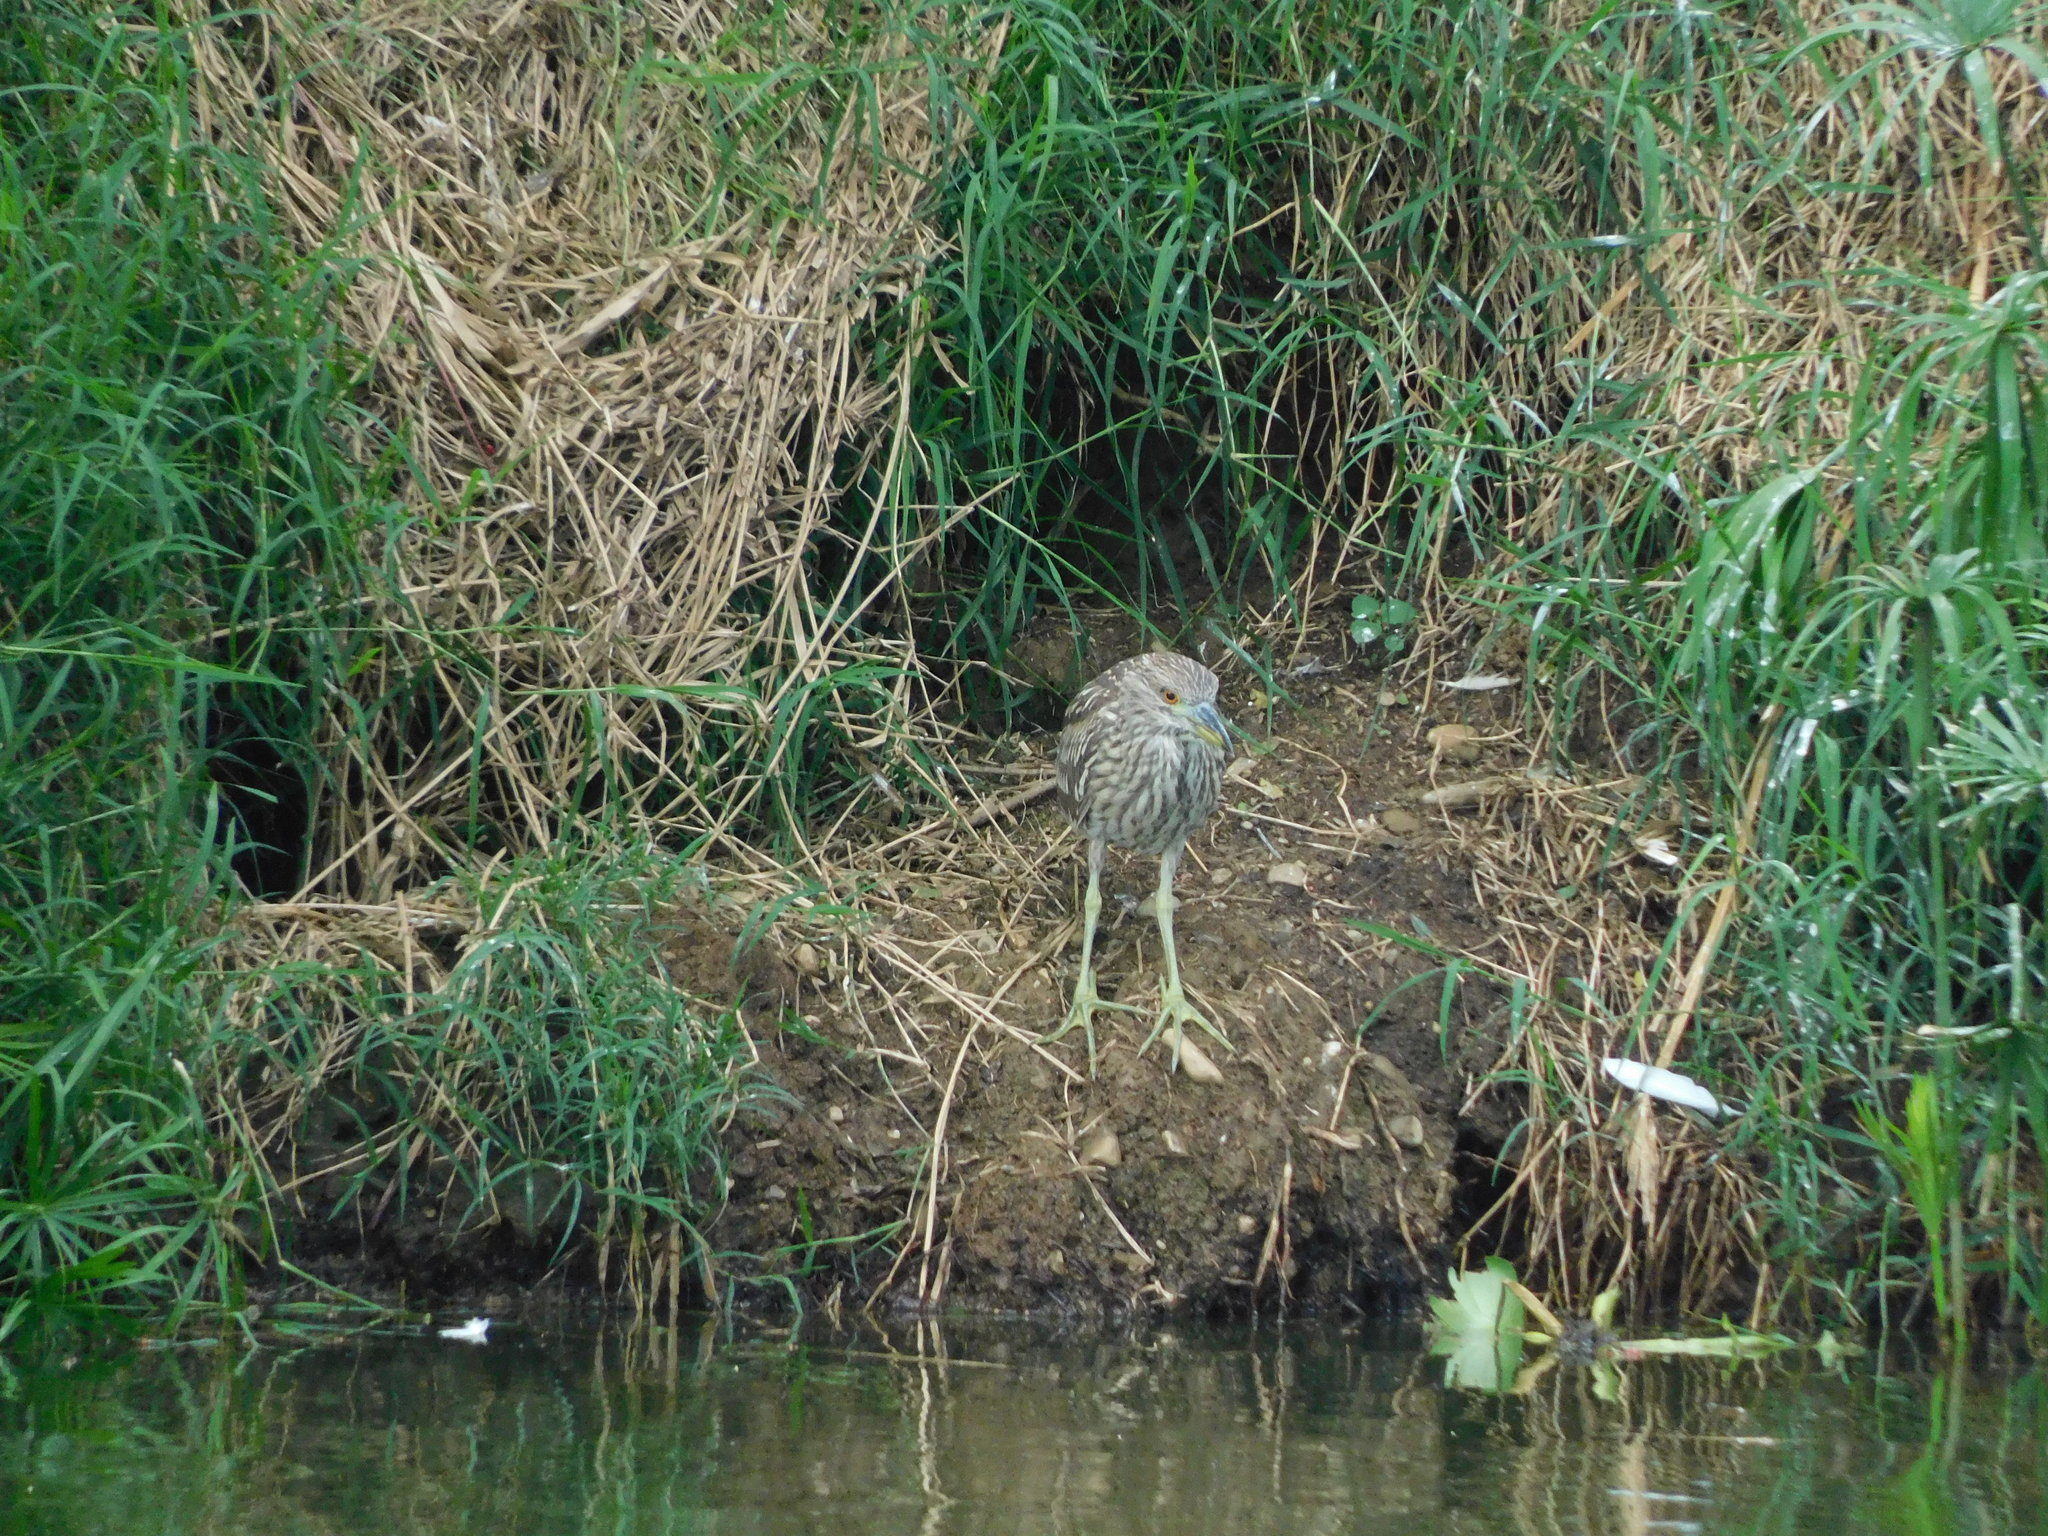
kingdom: Animalia
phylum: Chordata
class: Aves
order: Pelecaniformes
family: Ardeidae
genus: Nycticorax
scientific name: Nycticorax nycticorax
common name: Black-crowned night heron
